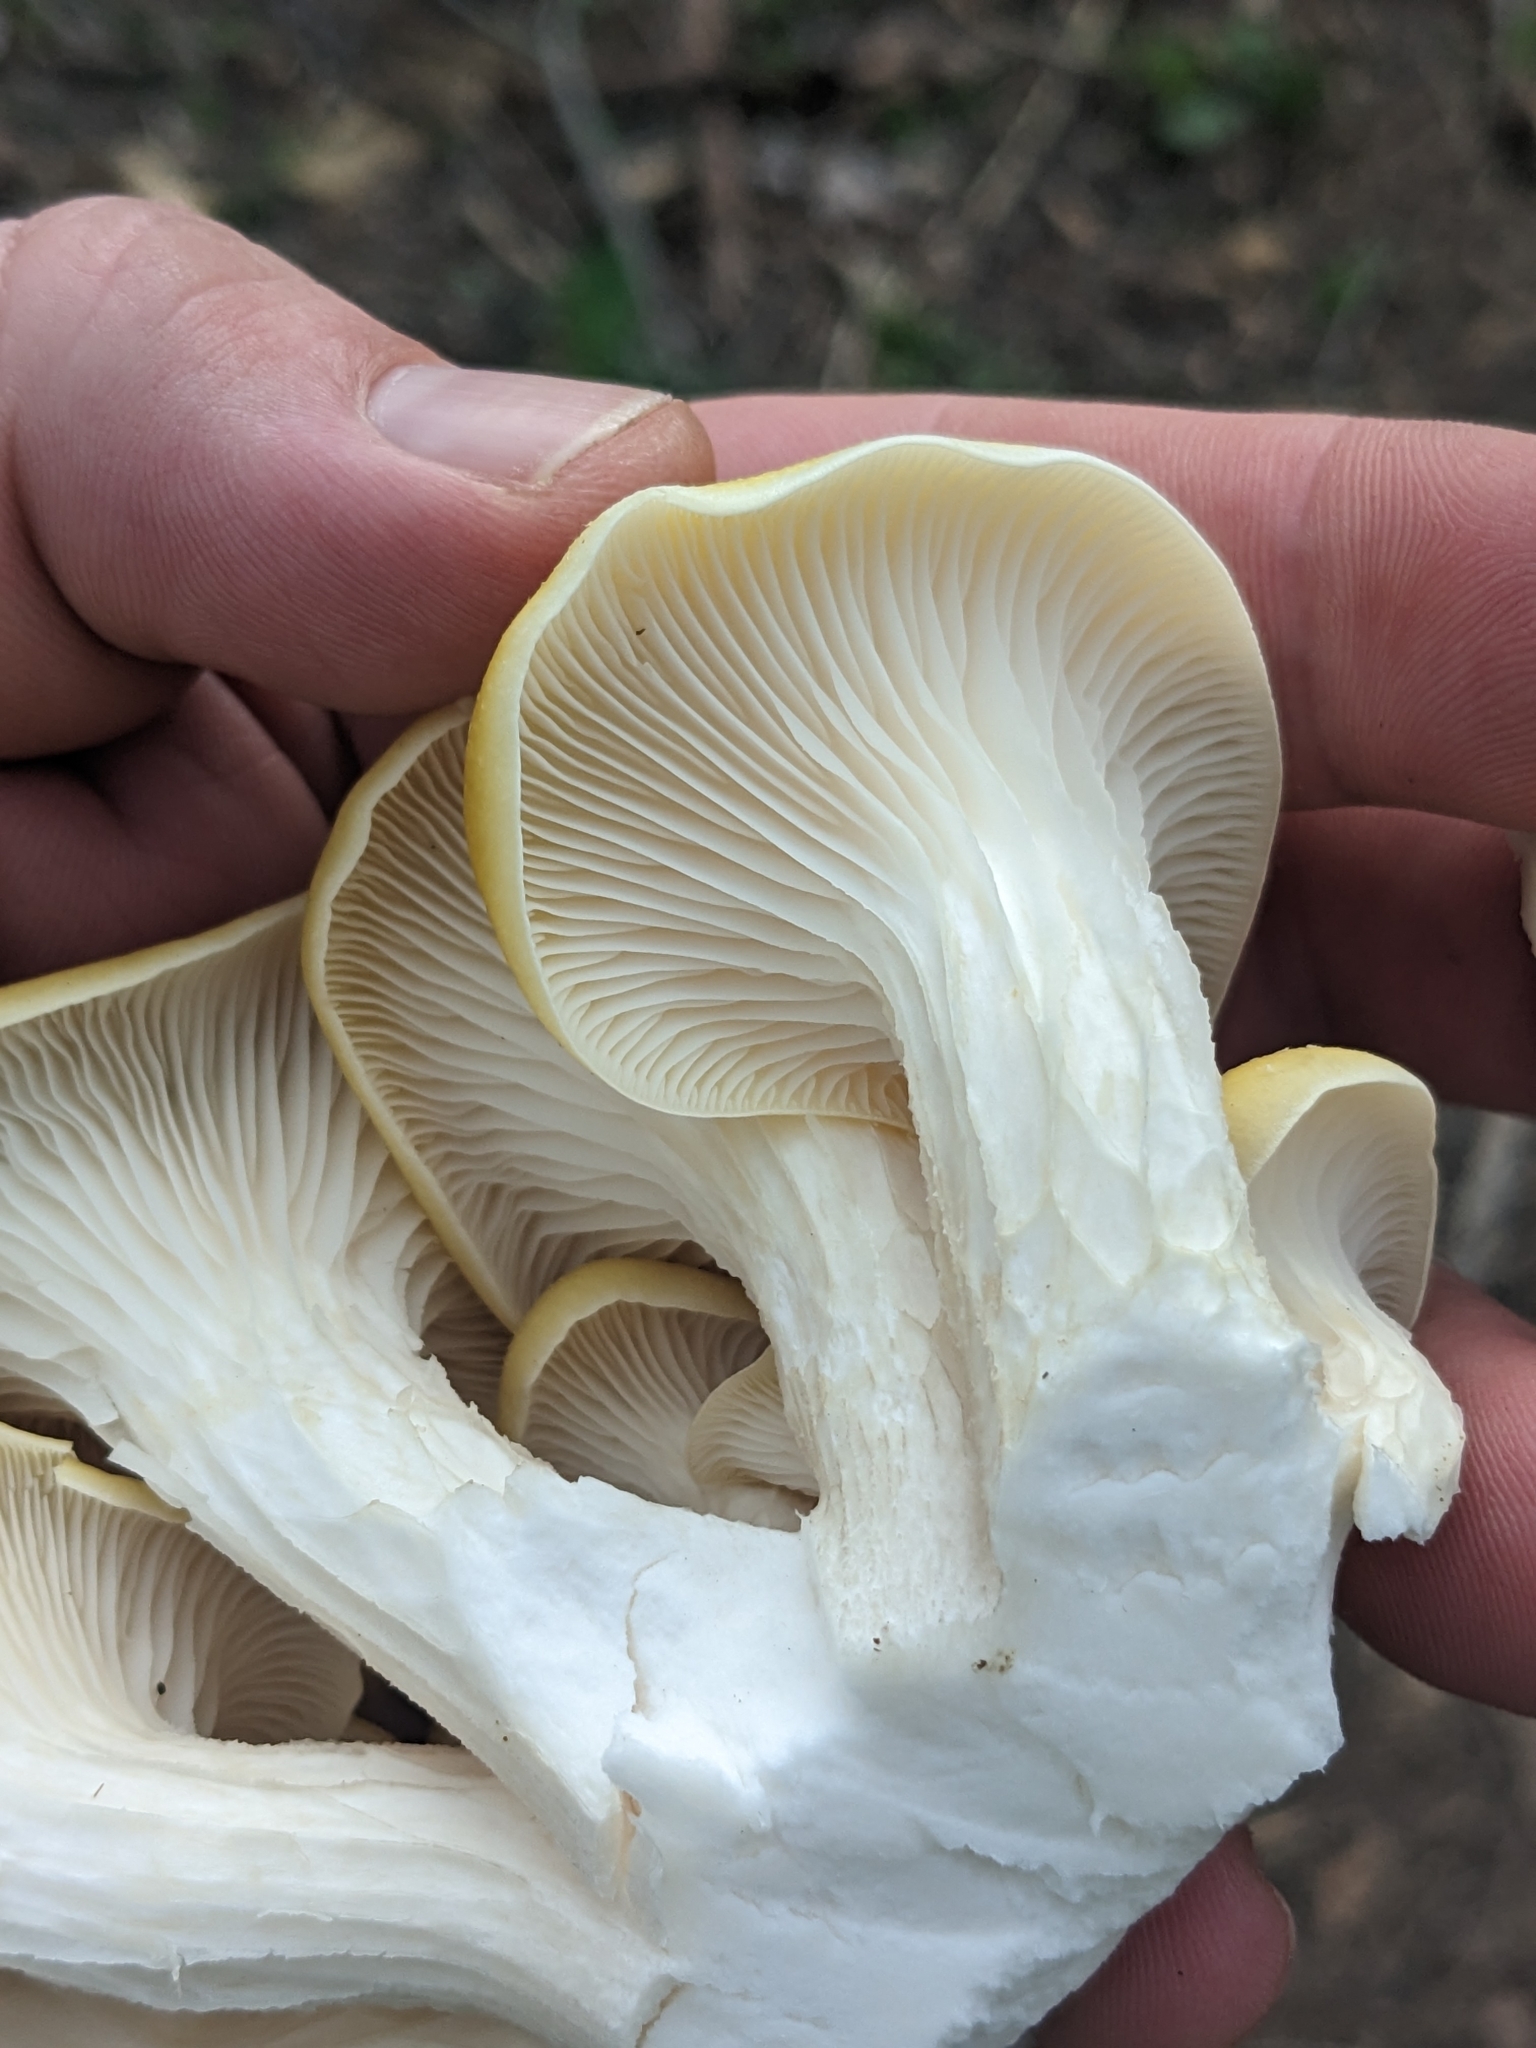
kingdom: Fungi
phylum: Basidiomycota
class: Agaricomycetes
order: Agaricales
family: Pleurotaceae
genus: Pleurotus
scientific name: Pleurotus citrinopileatus
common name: Golden oyster mushroom
